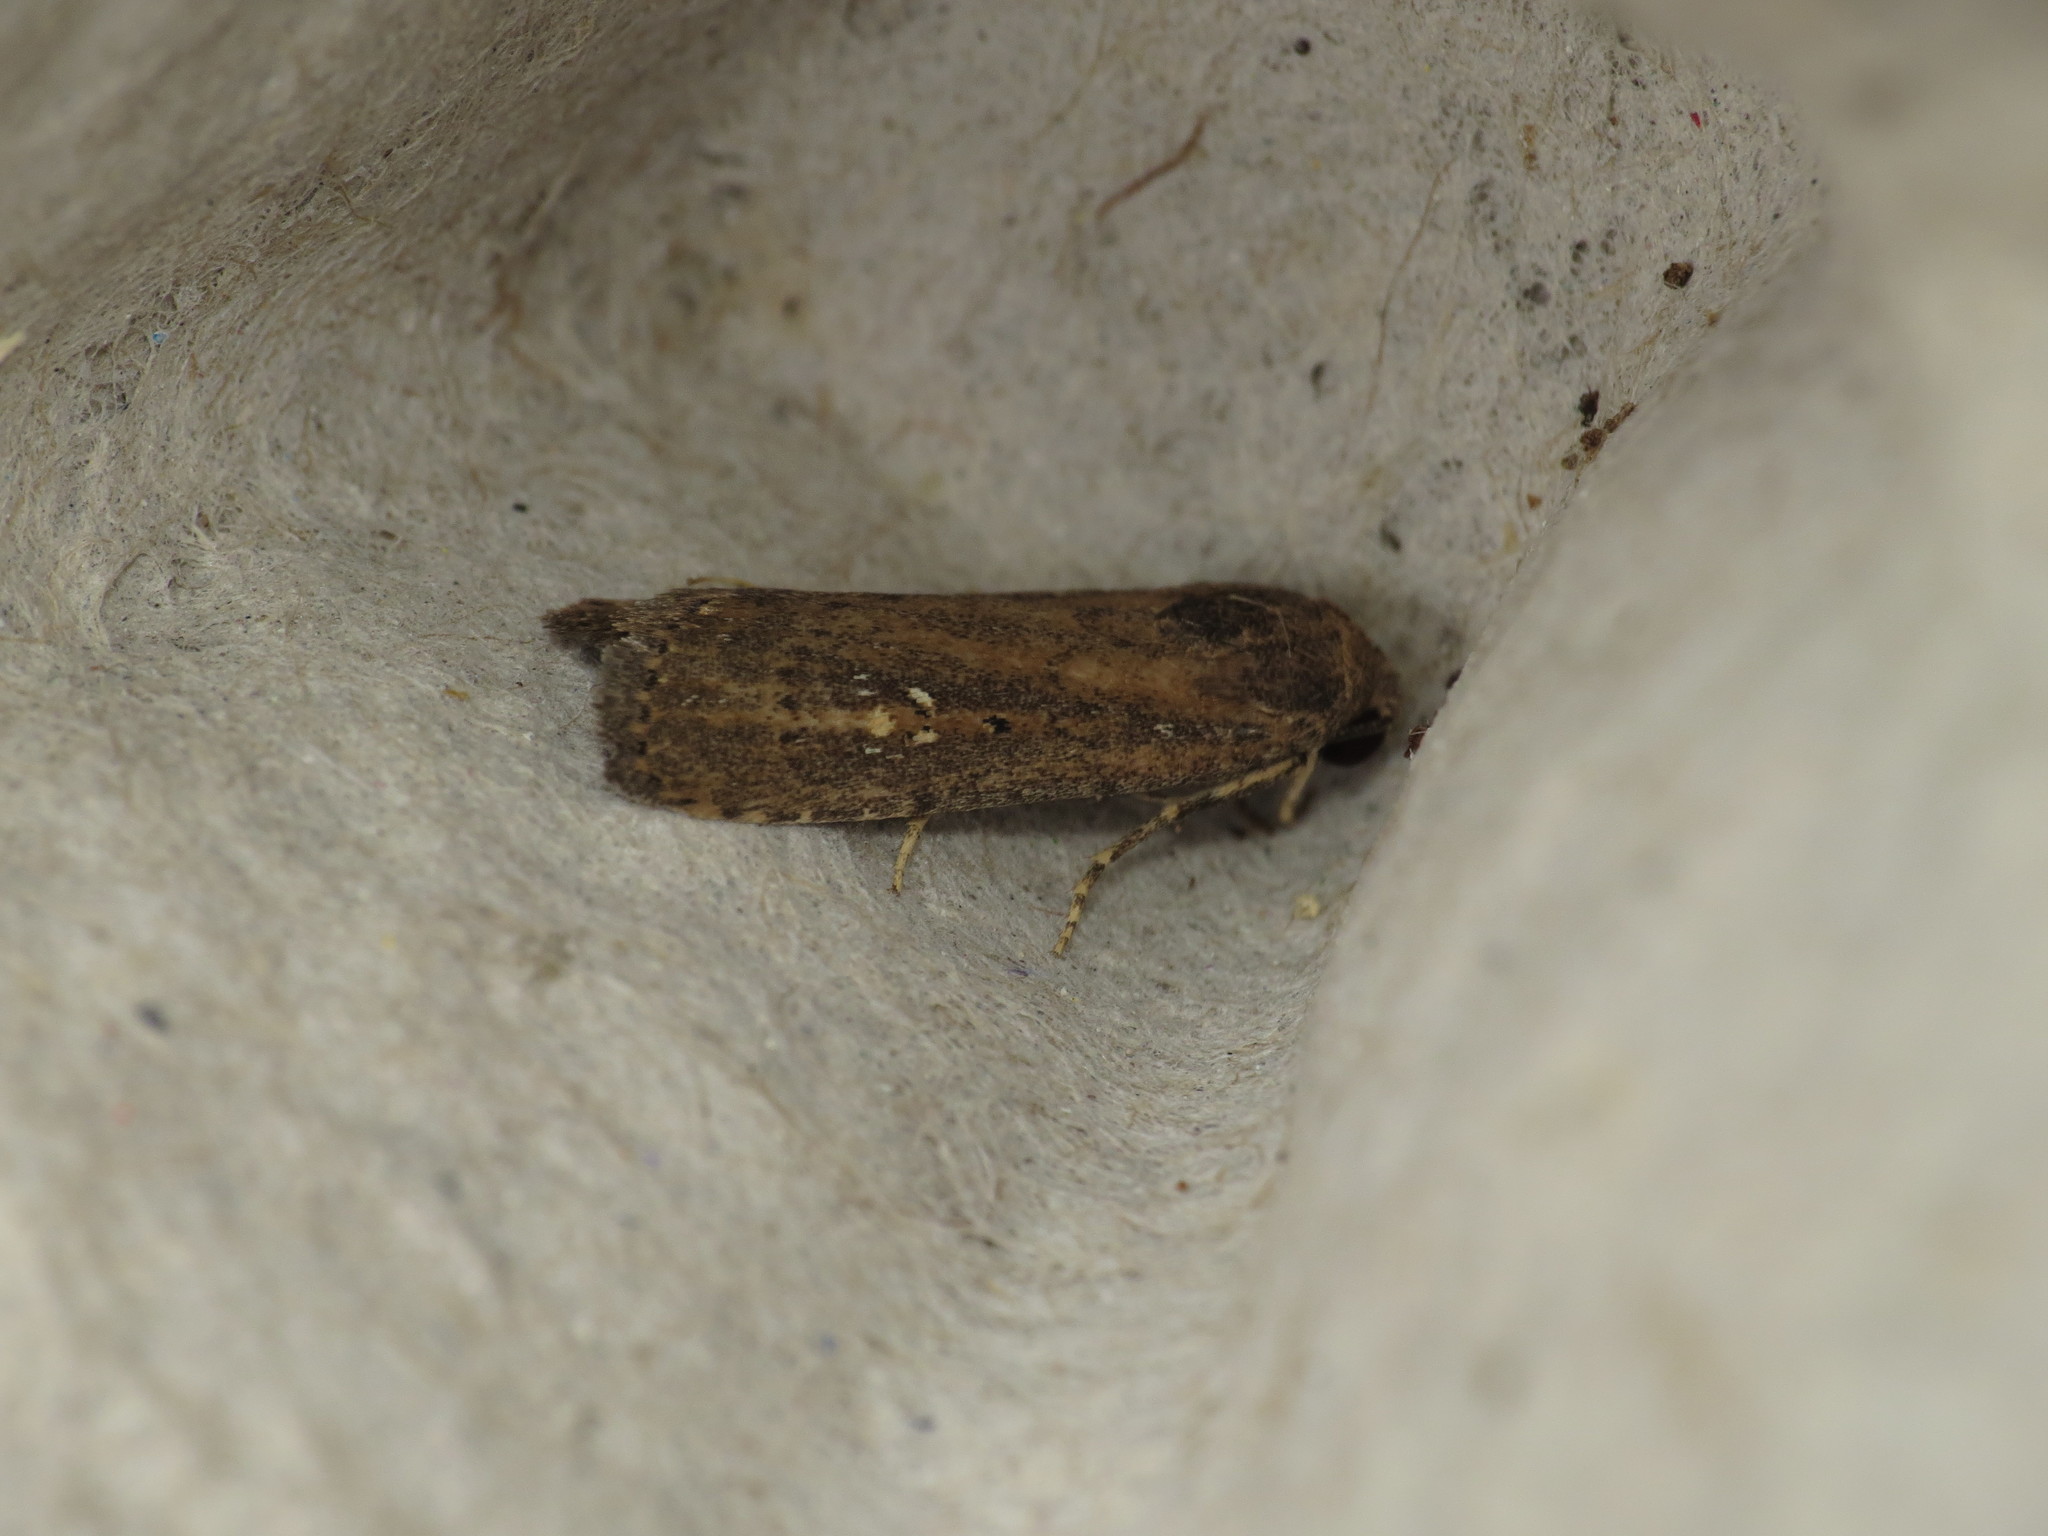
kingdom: Animalia
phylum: Arthropoda
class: Insecta
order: Lepidoptera
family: Noctuidae
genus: Athetis
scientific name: Athetis tenuis
